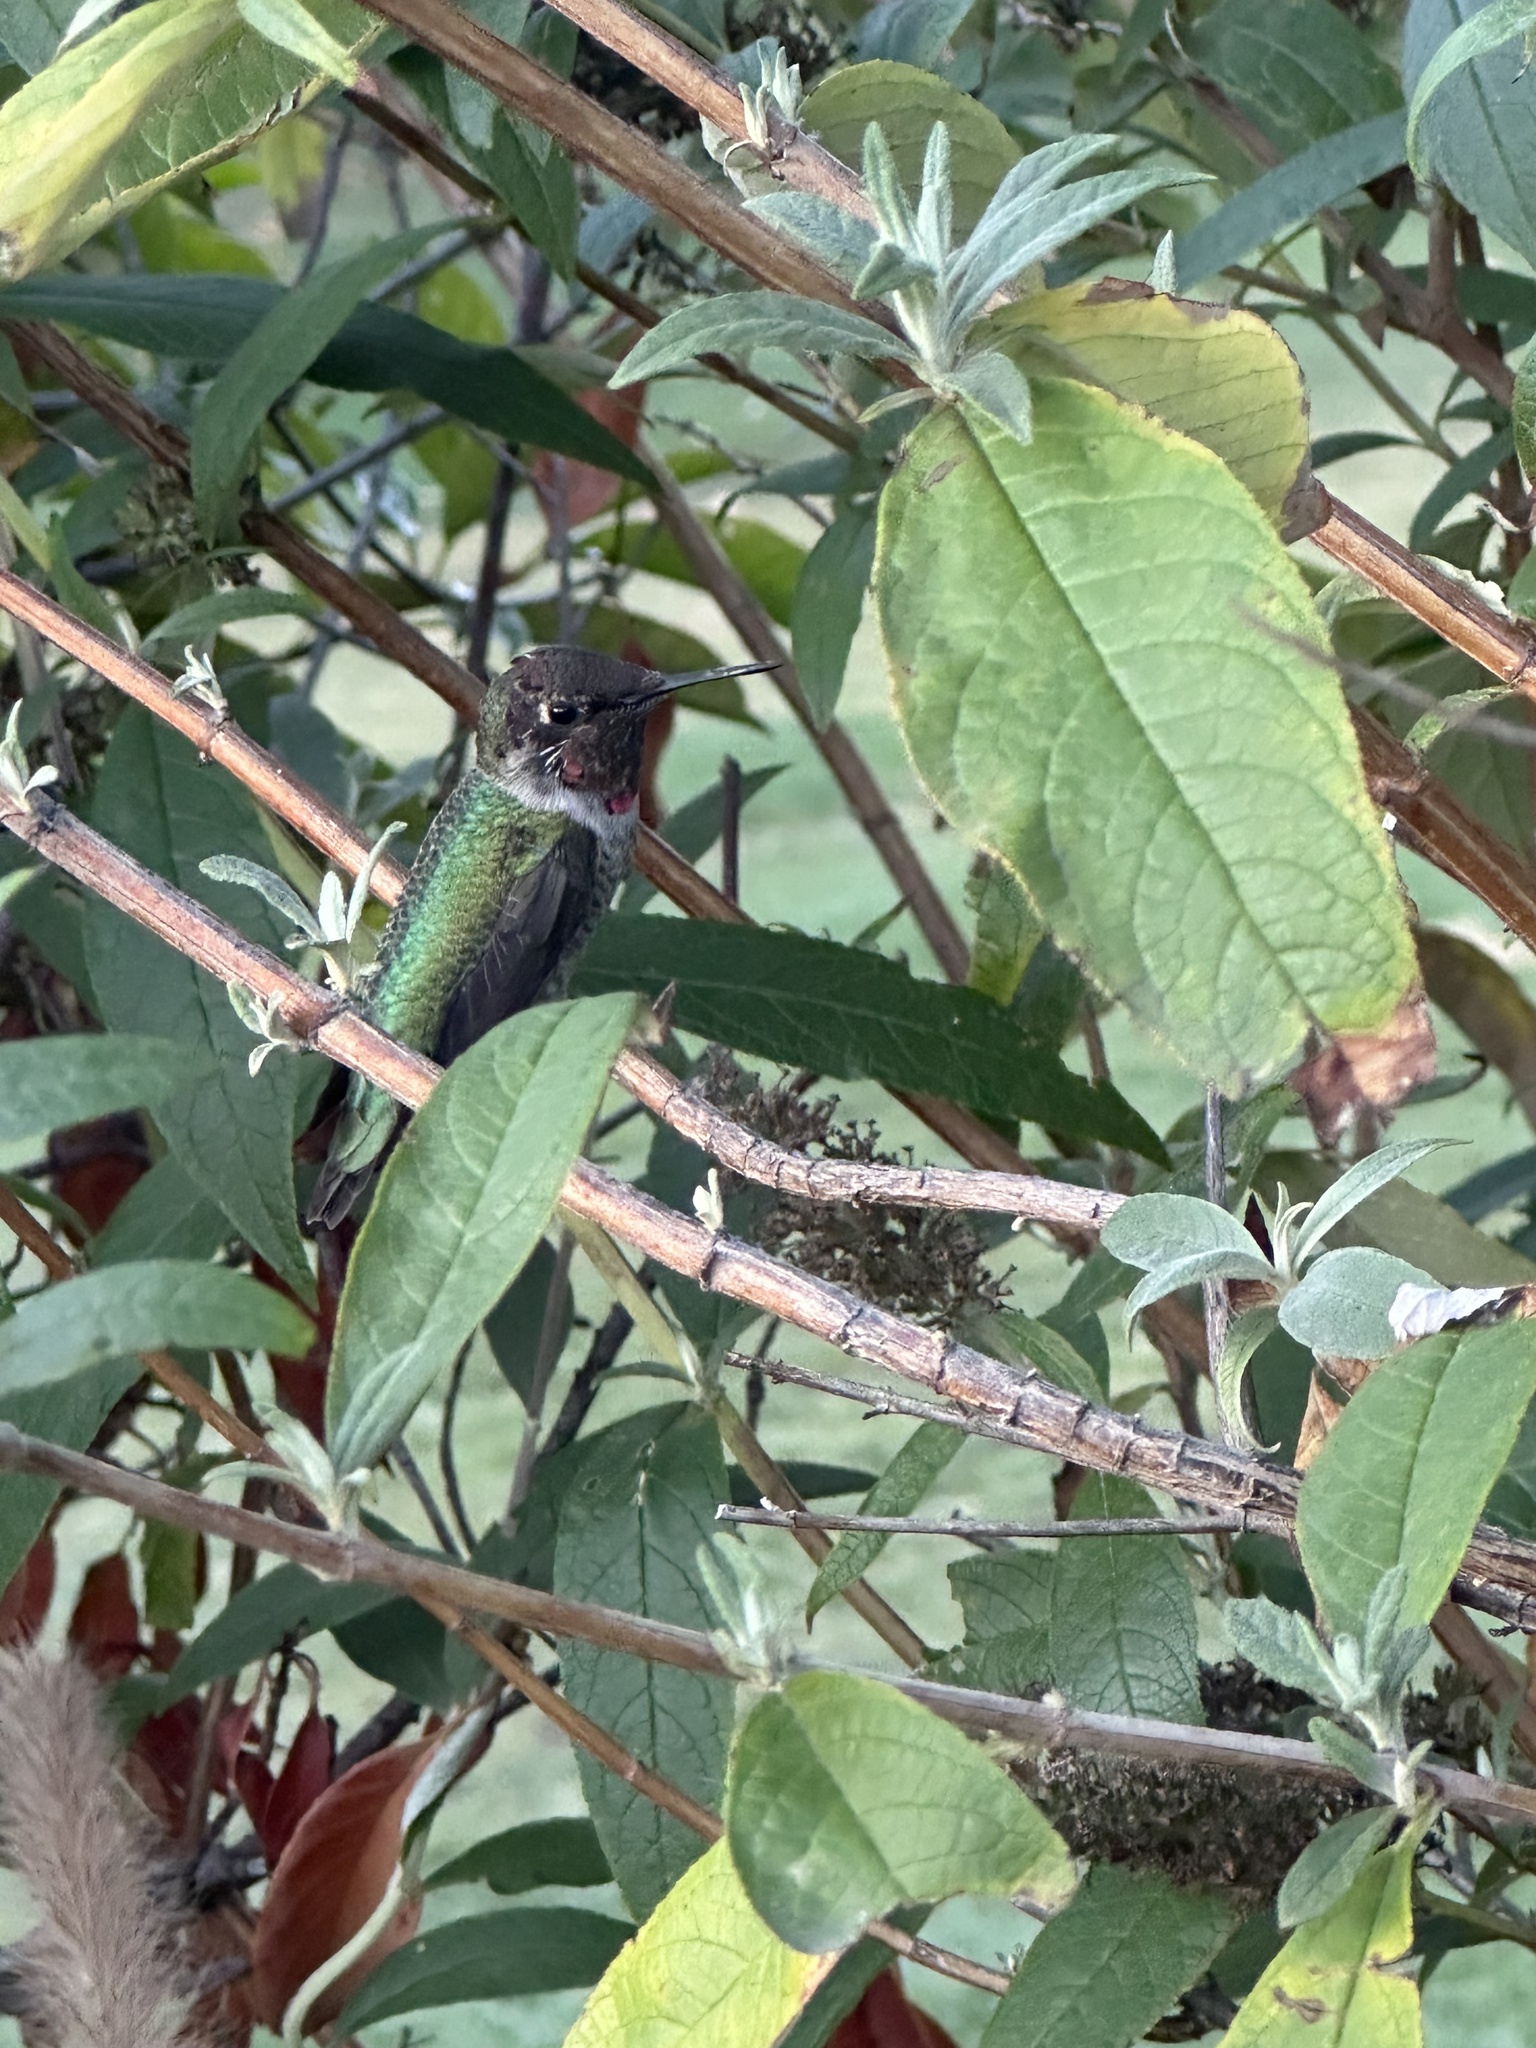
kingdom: Animalia
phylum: Chordata
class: Aves
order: Apodiformes
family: Trochilidae
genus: Calypte
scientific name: Calypte anna
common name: Anna's hummingbird
